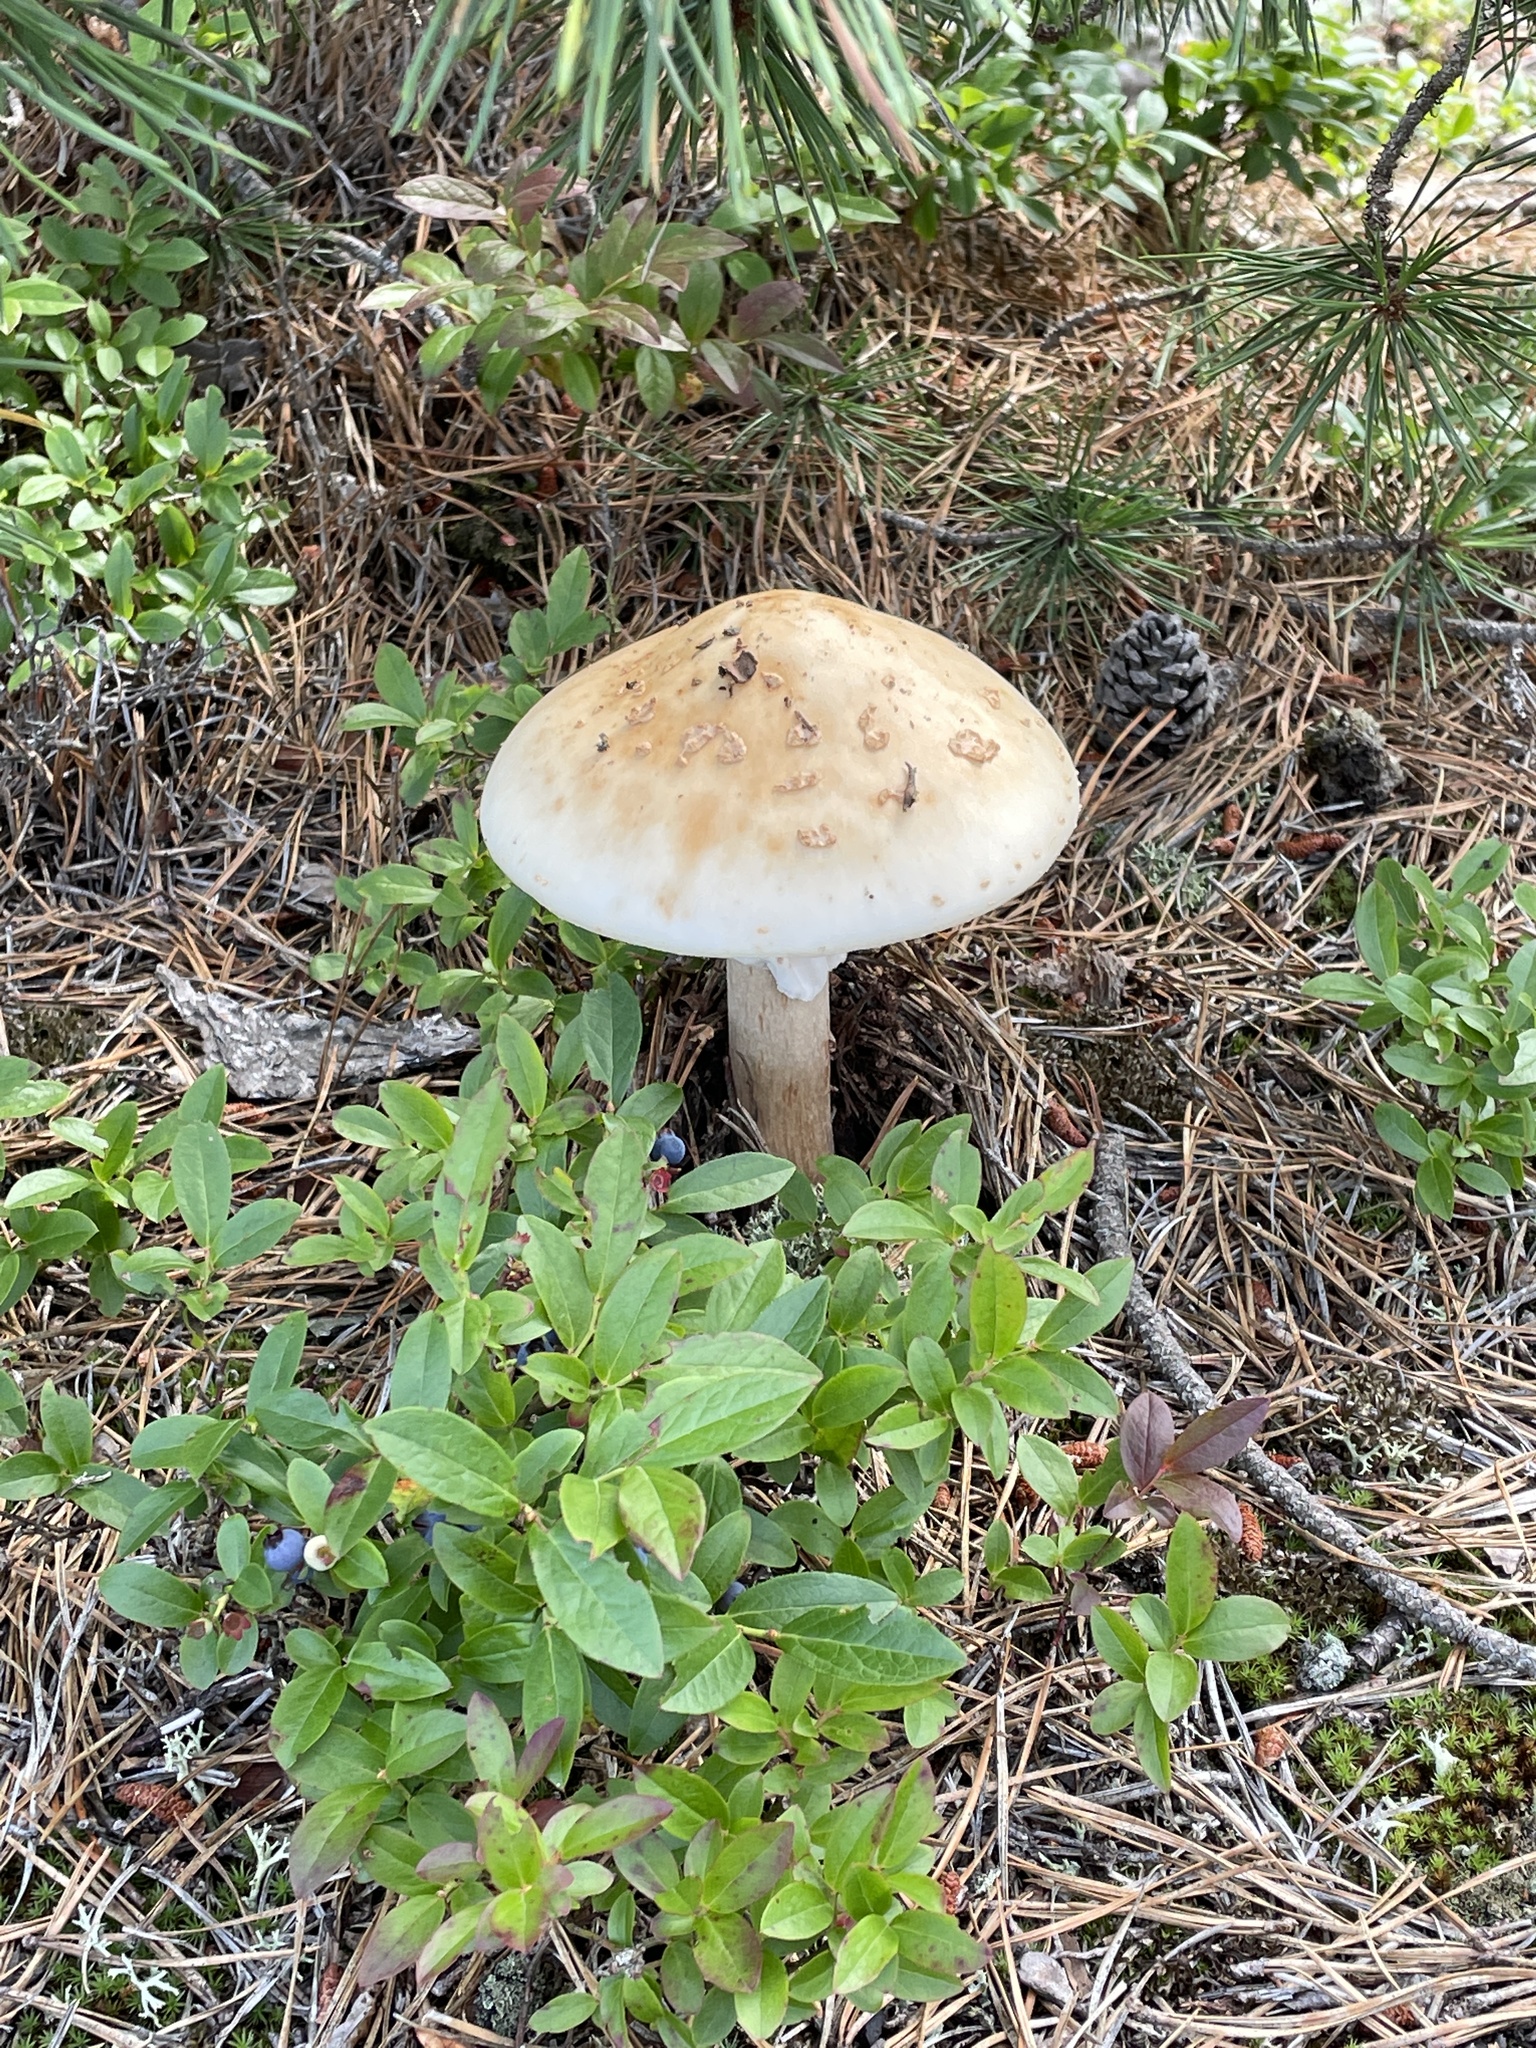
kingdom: Fungi
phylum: Basidiomycota
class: Agaricomycetes
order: Agaricales
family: Amanitaceae
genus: Amanita
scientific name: Amanita rubescens
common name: Blusher
